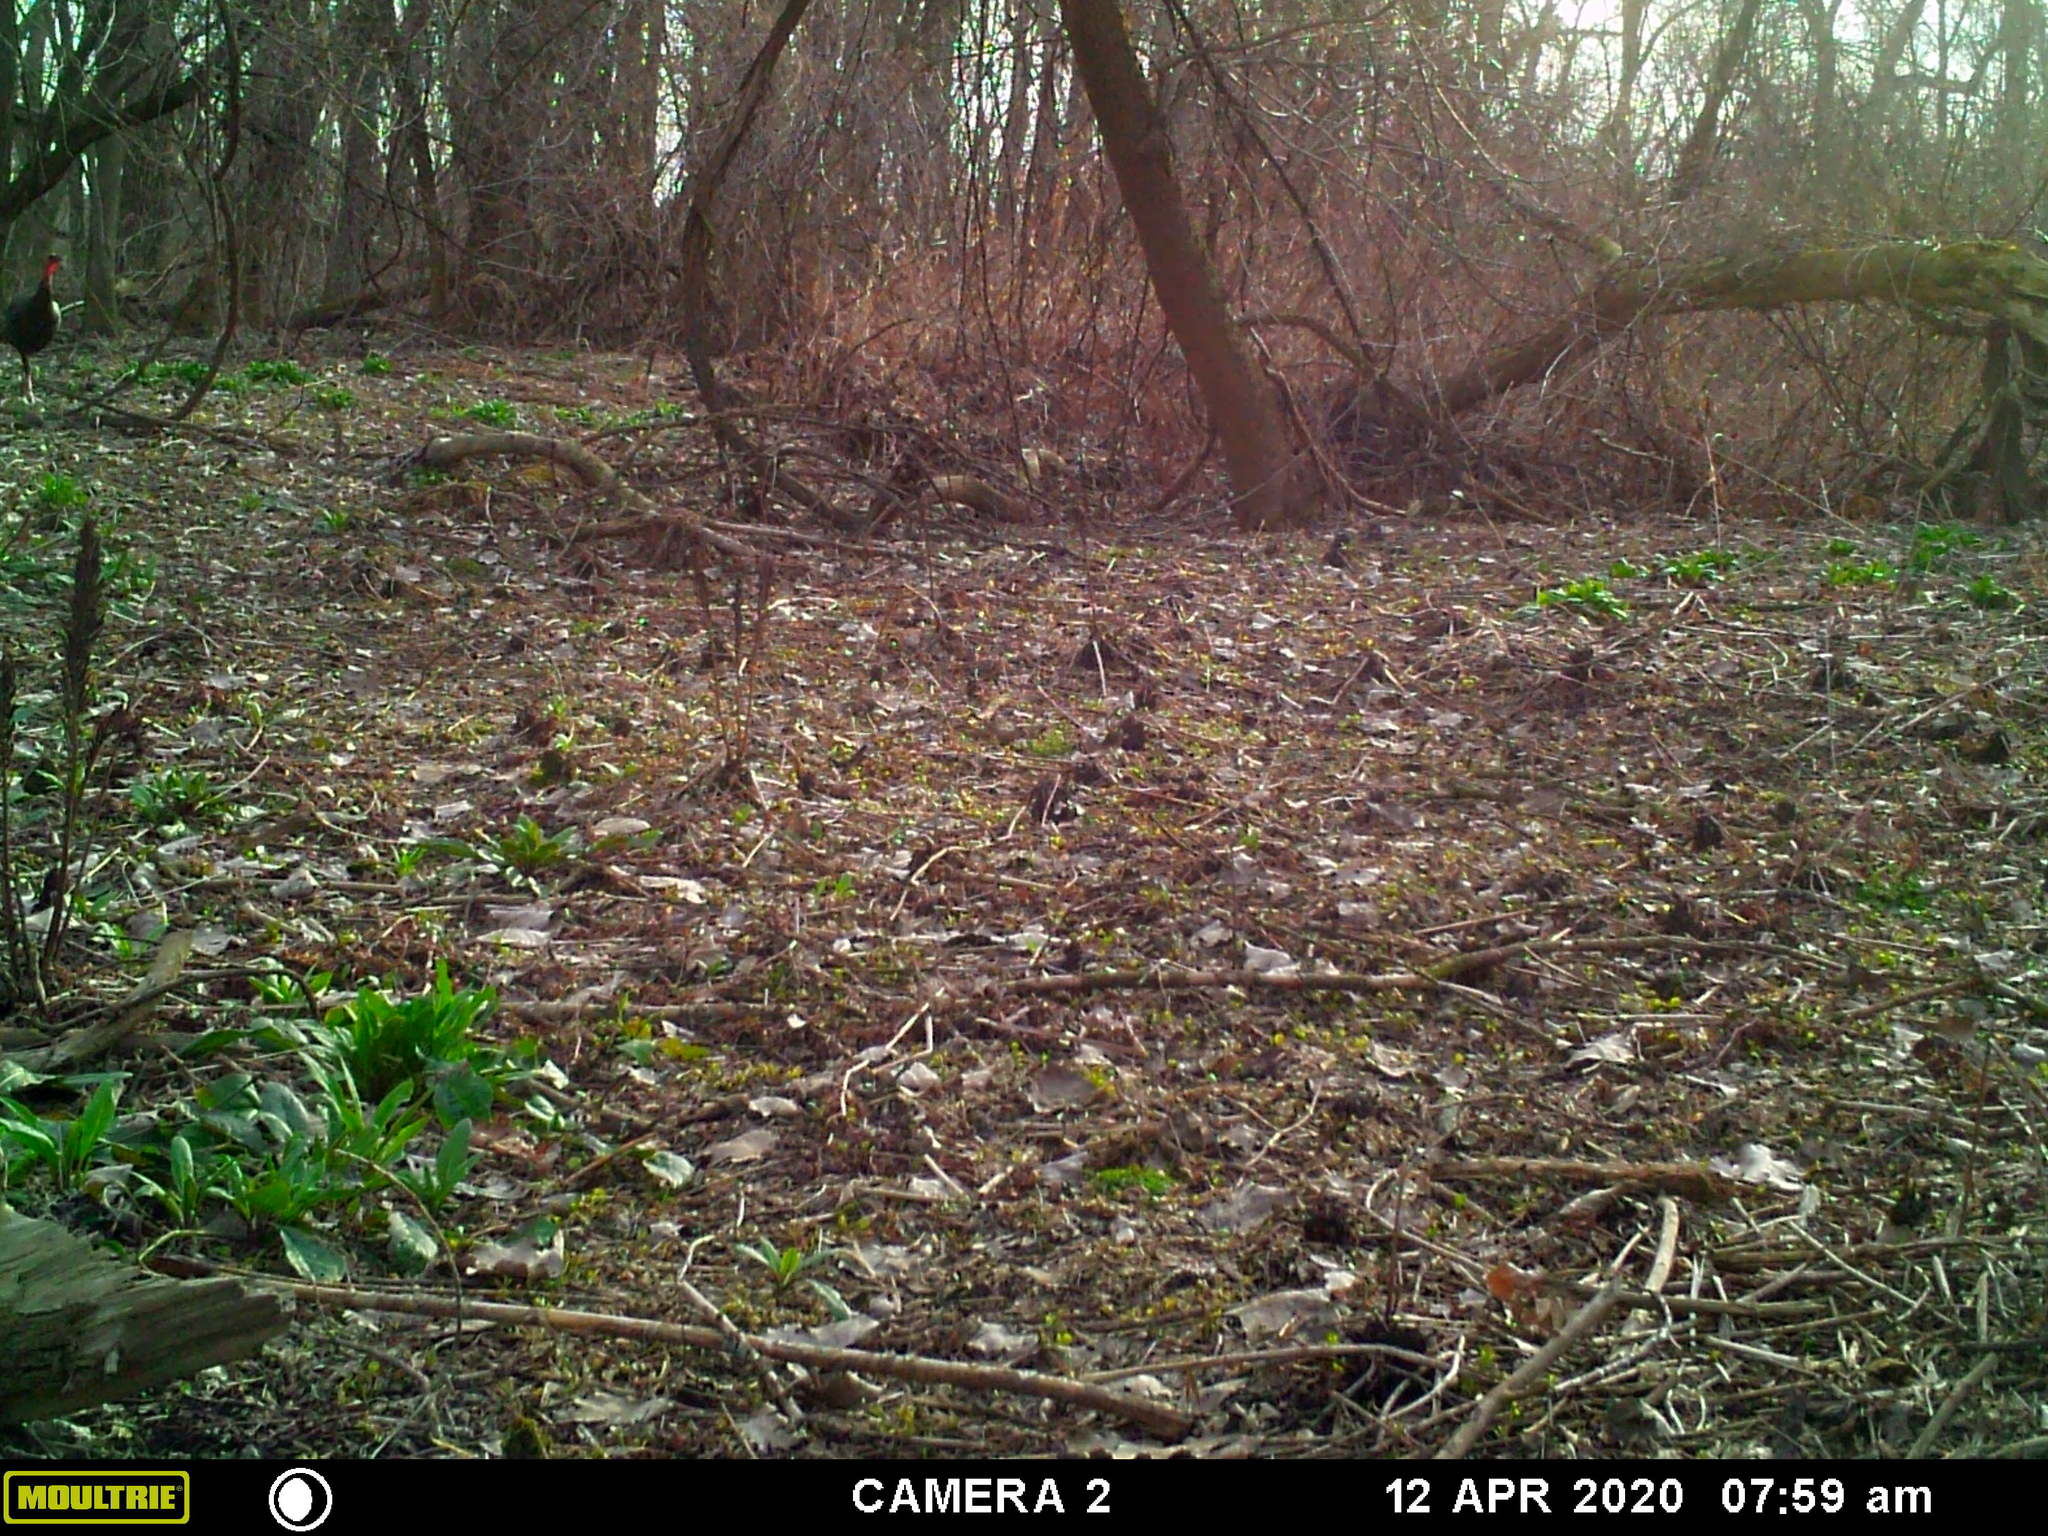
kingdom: Animalia
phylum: Chordata
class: Aves
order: Galliformes
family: Phasianidae
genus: Meleagris
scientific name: Meleagris gallopavo
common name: Wild turkey
